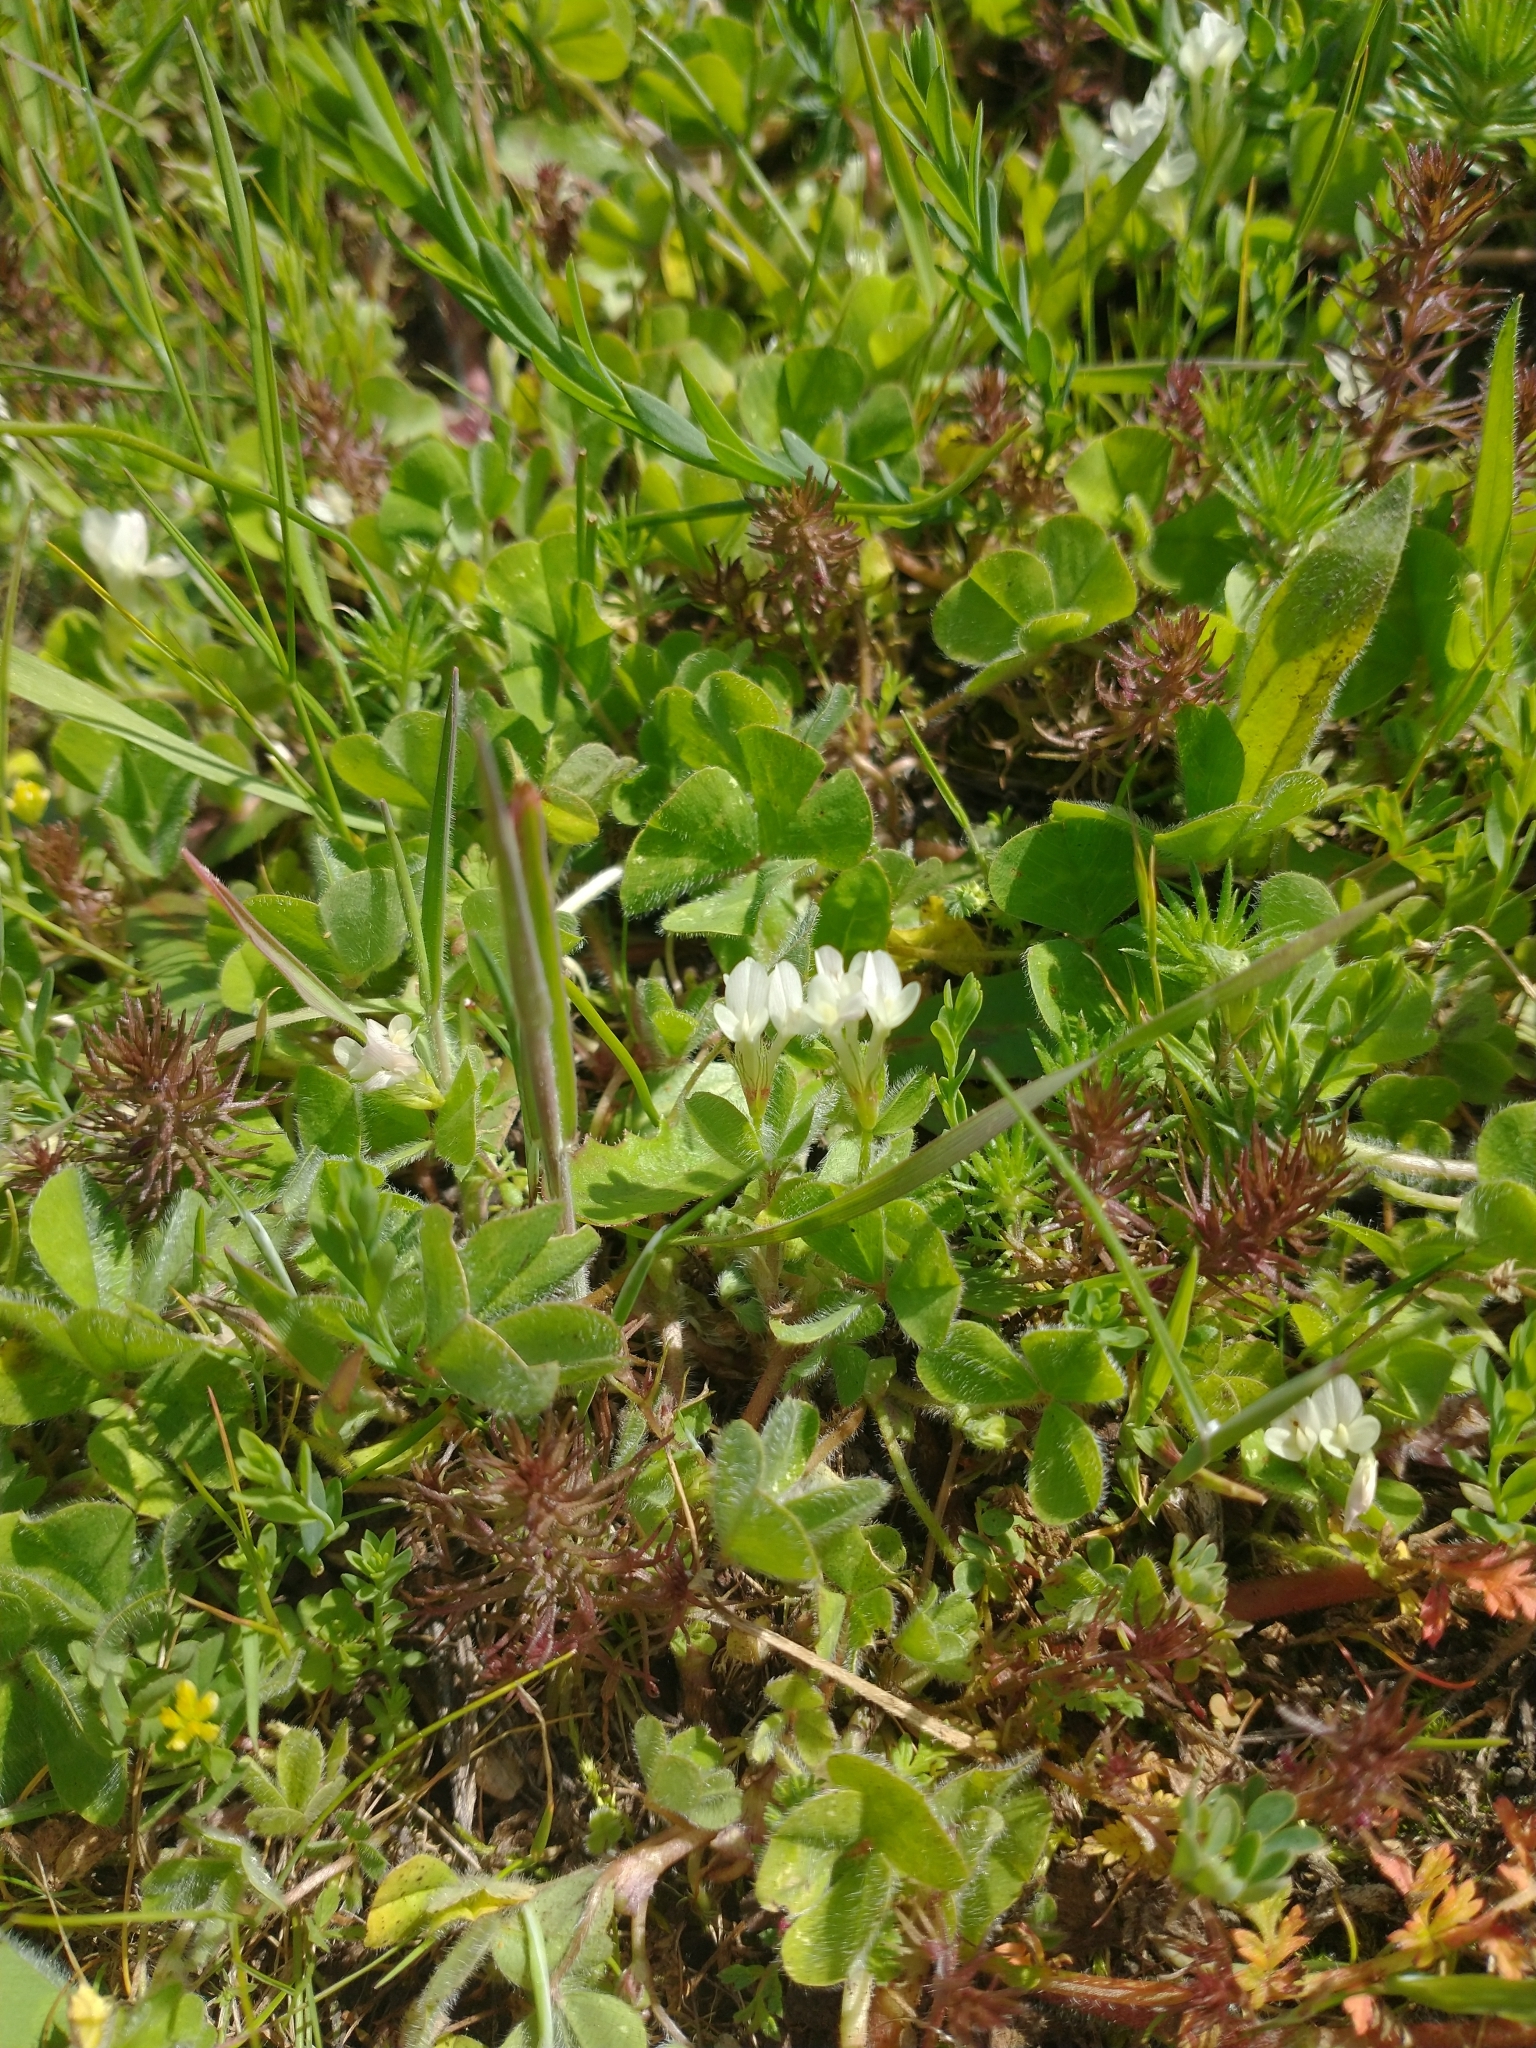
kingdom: Plantae
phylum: Tracheophyta
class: Magnoliopsida
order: Fabales
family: Fabaceae
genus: Trifolium
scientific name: Trifolium subterraneum
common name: Subterranean clover
